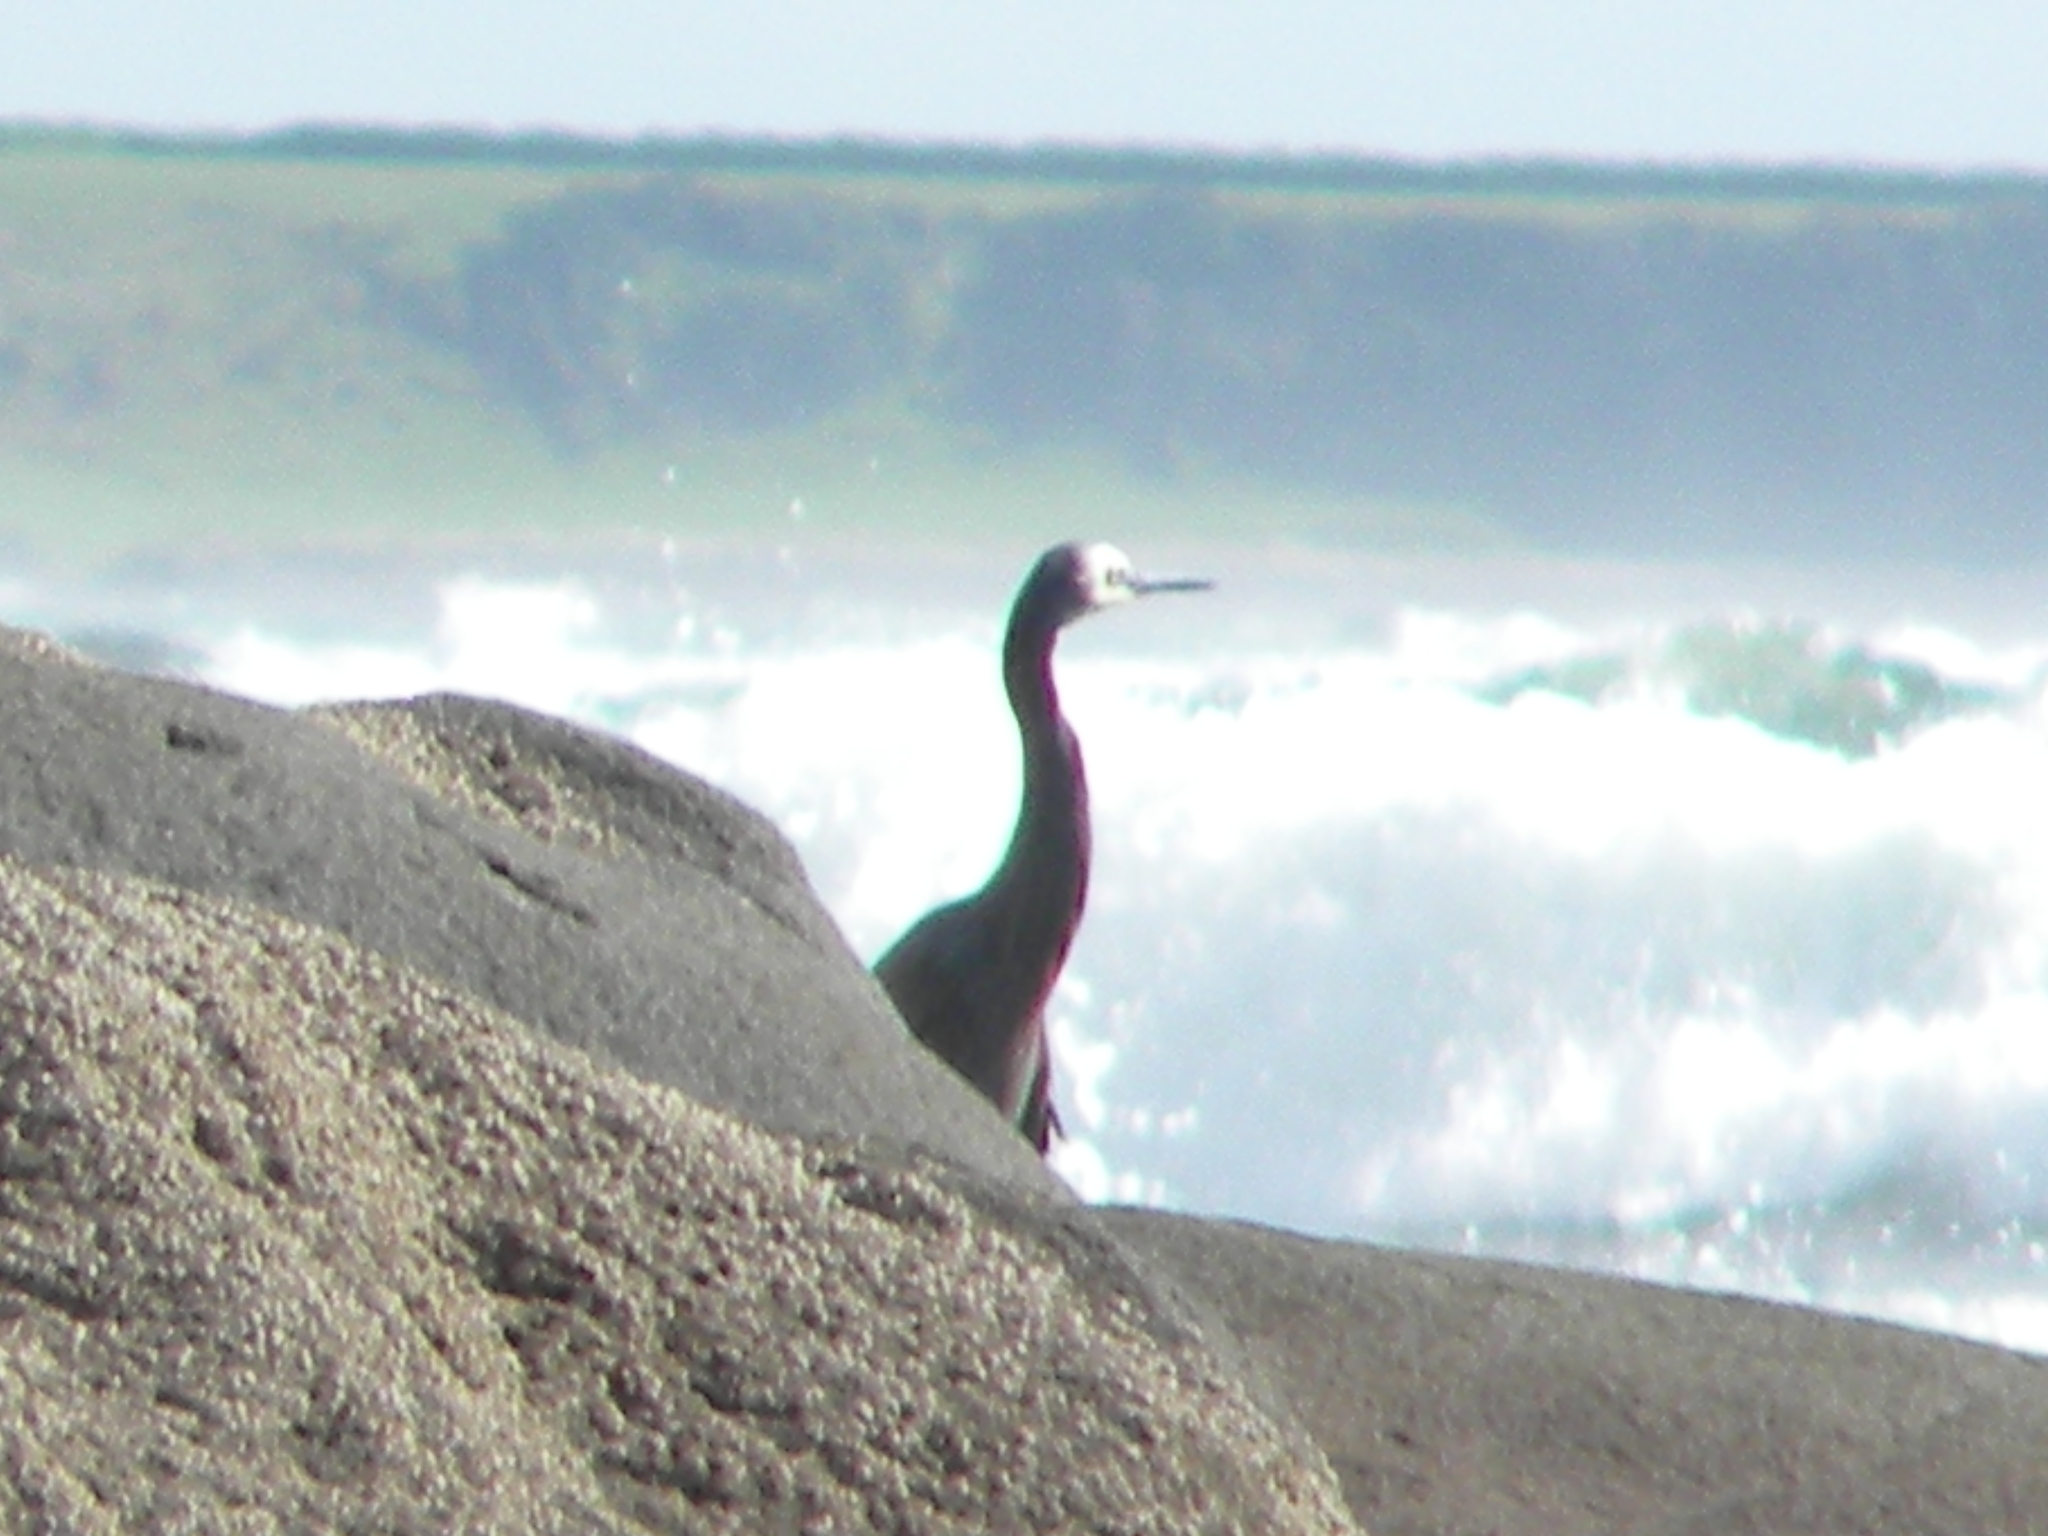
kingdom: Animalia
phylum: Chordata
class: Aves
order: Pelecaniformes
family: Ardeidae
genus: Egretta
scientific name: Egretta novaehollandiae
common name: White-faced heron
